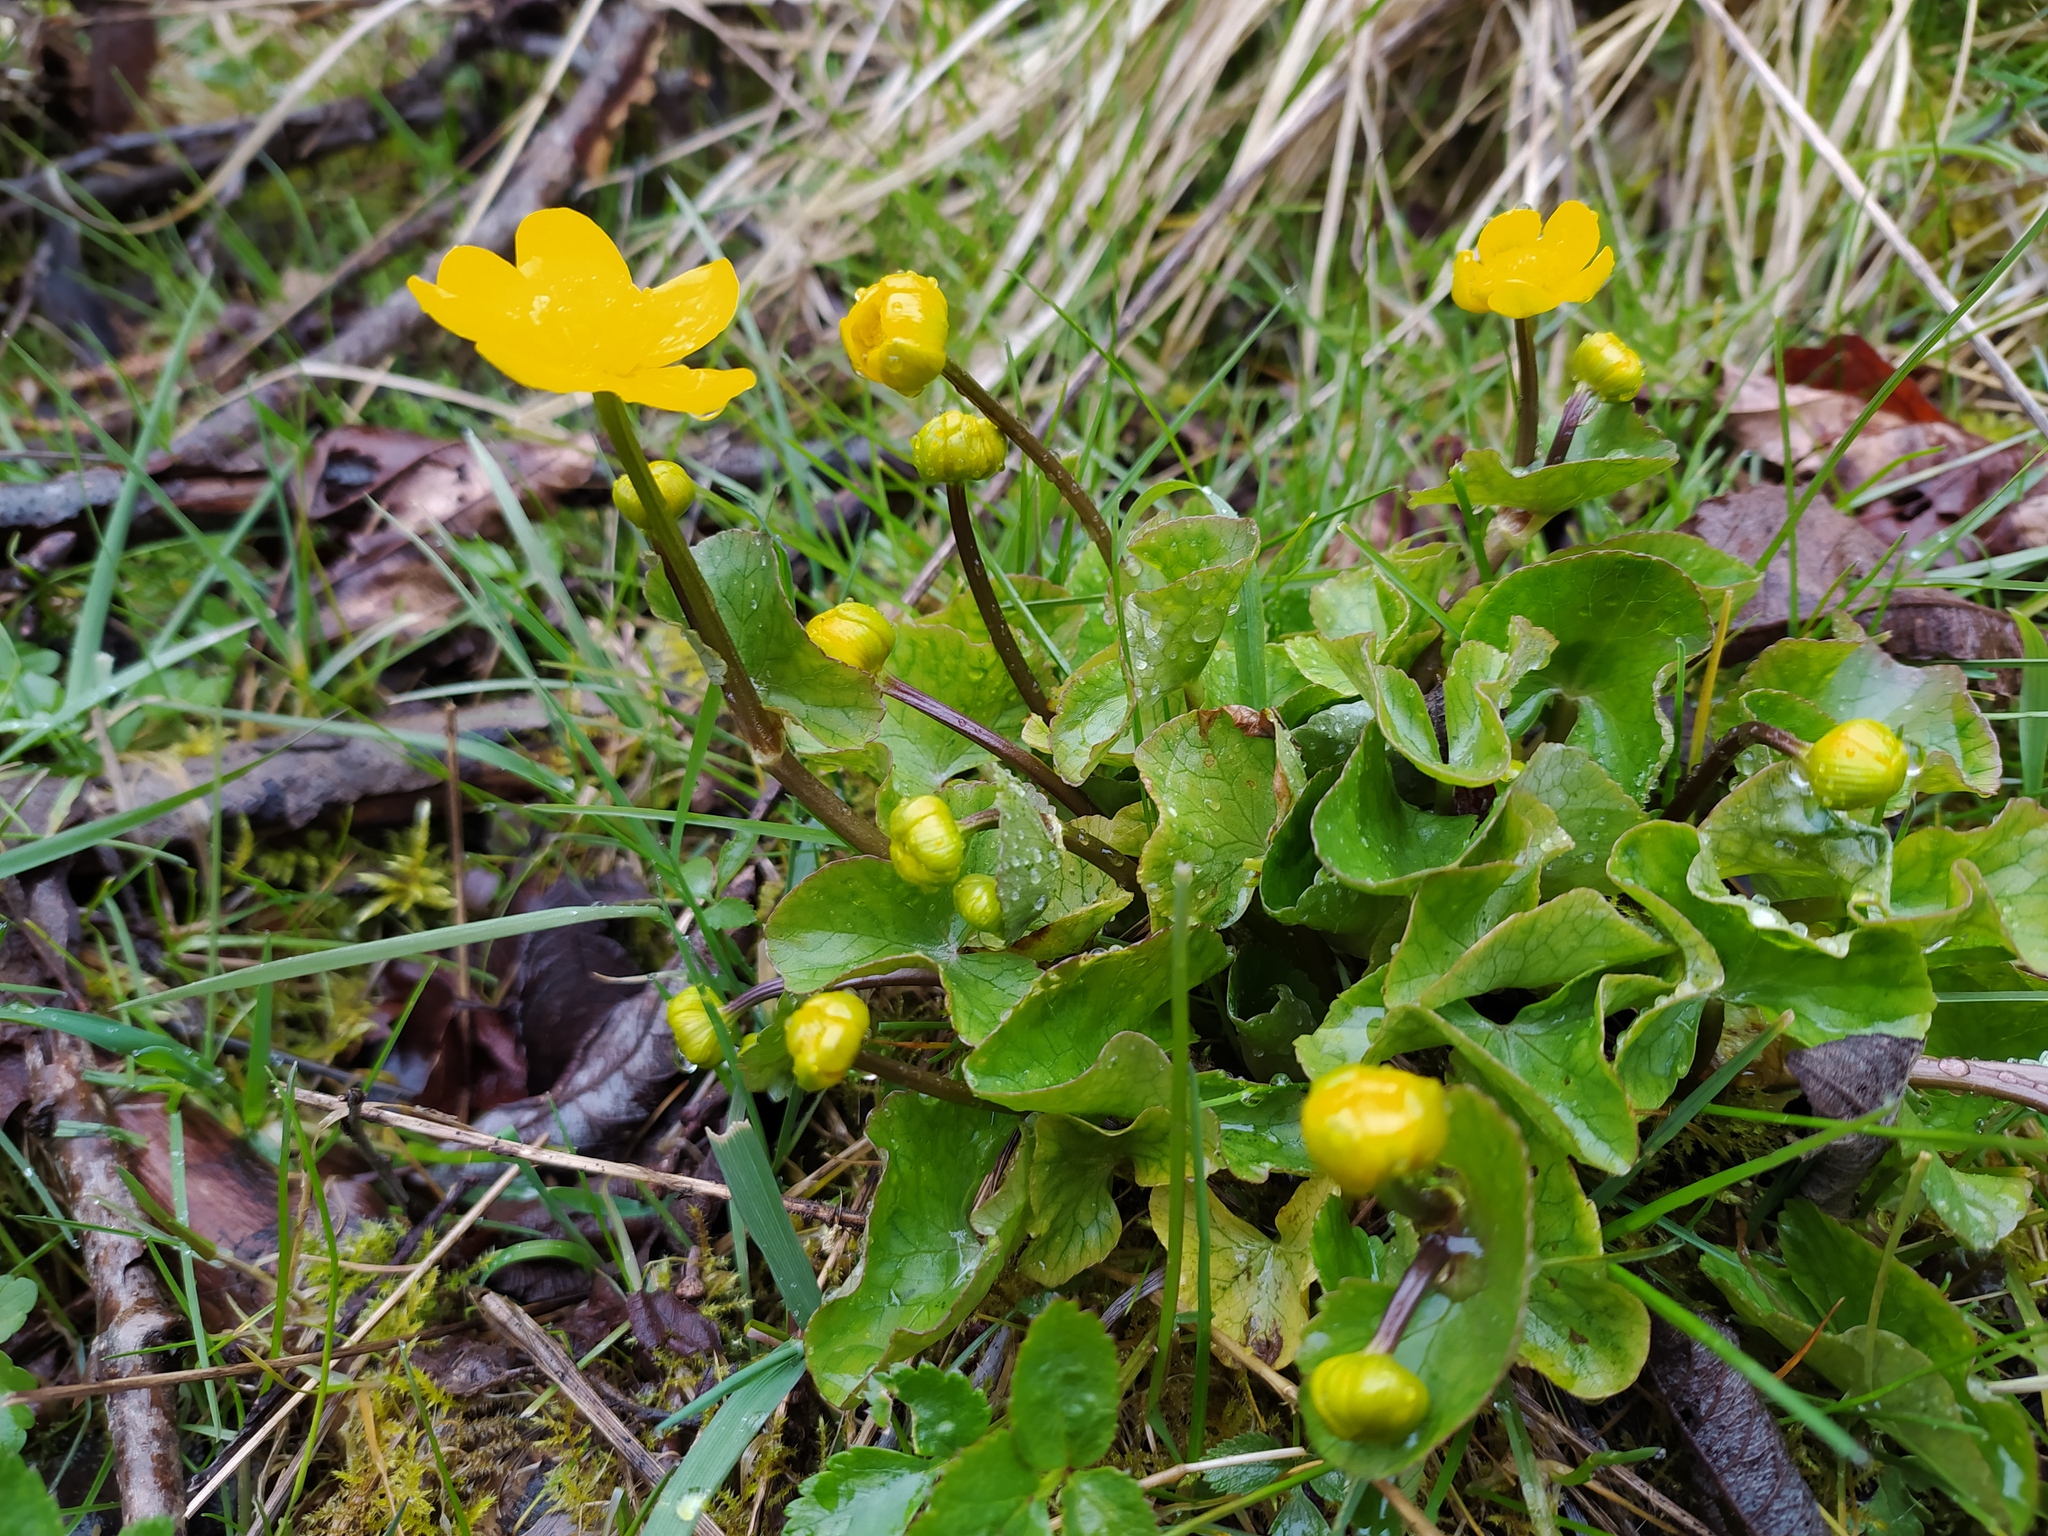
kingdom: Plantae
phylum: Tracheophyta
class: Magnoliopsida
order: Ranunculales
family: Ranunculaceae
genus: Caltha
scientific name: Caltha palustris
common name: Marsh marigold
